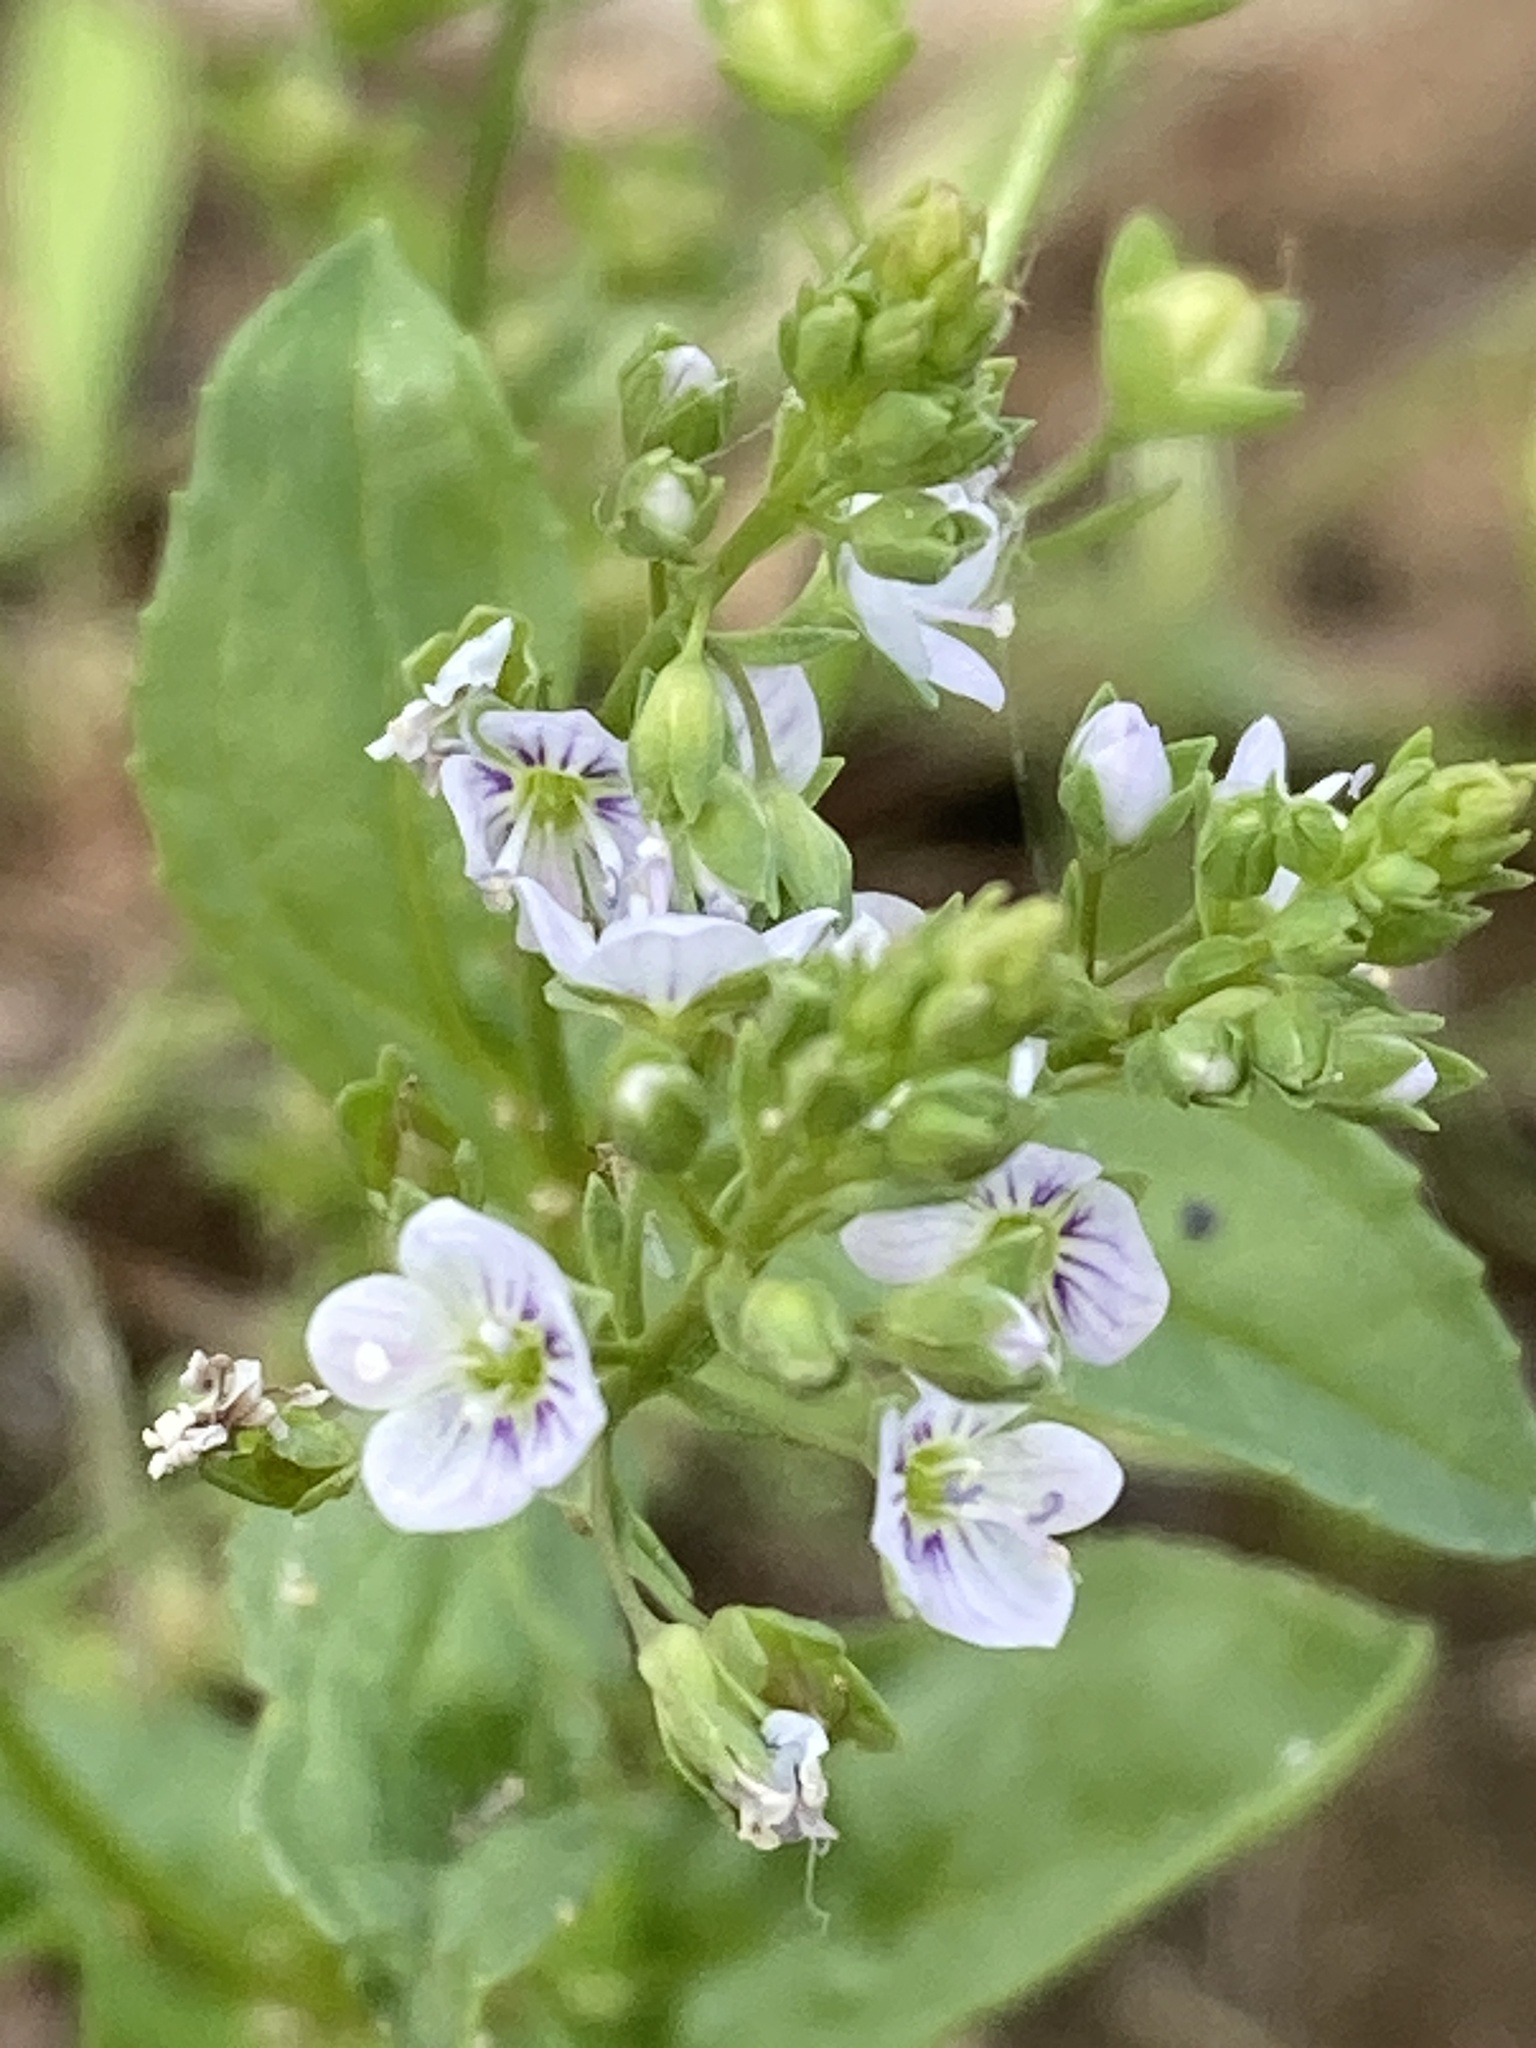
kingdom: Plantae
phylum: Tracheophyta
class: Magnoliopsida
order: Lamiales
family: Plantaginaceae
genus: Veronica
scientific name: Veronica anagallis-aquatica
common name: Water speedwell
